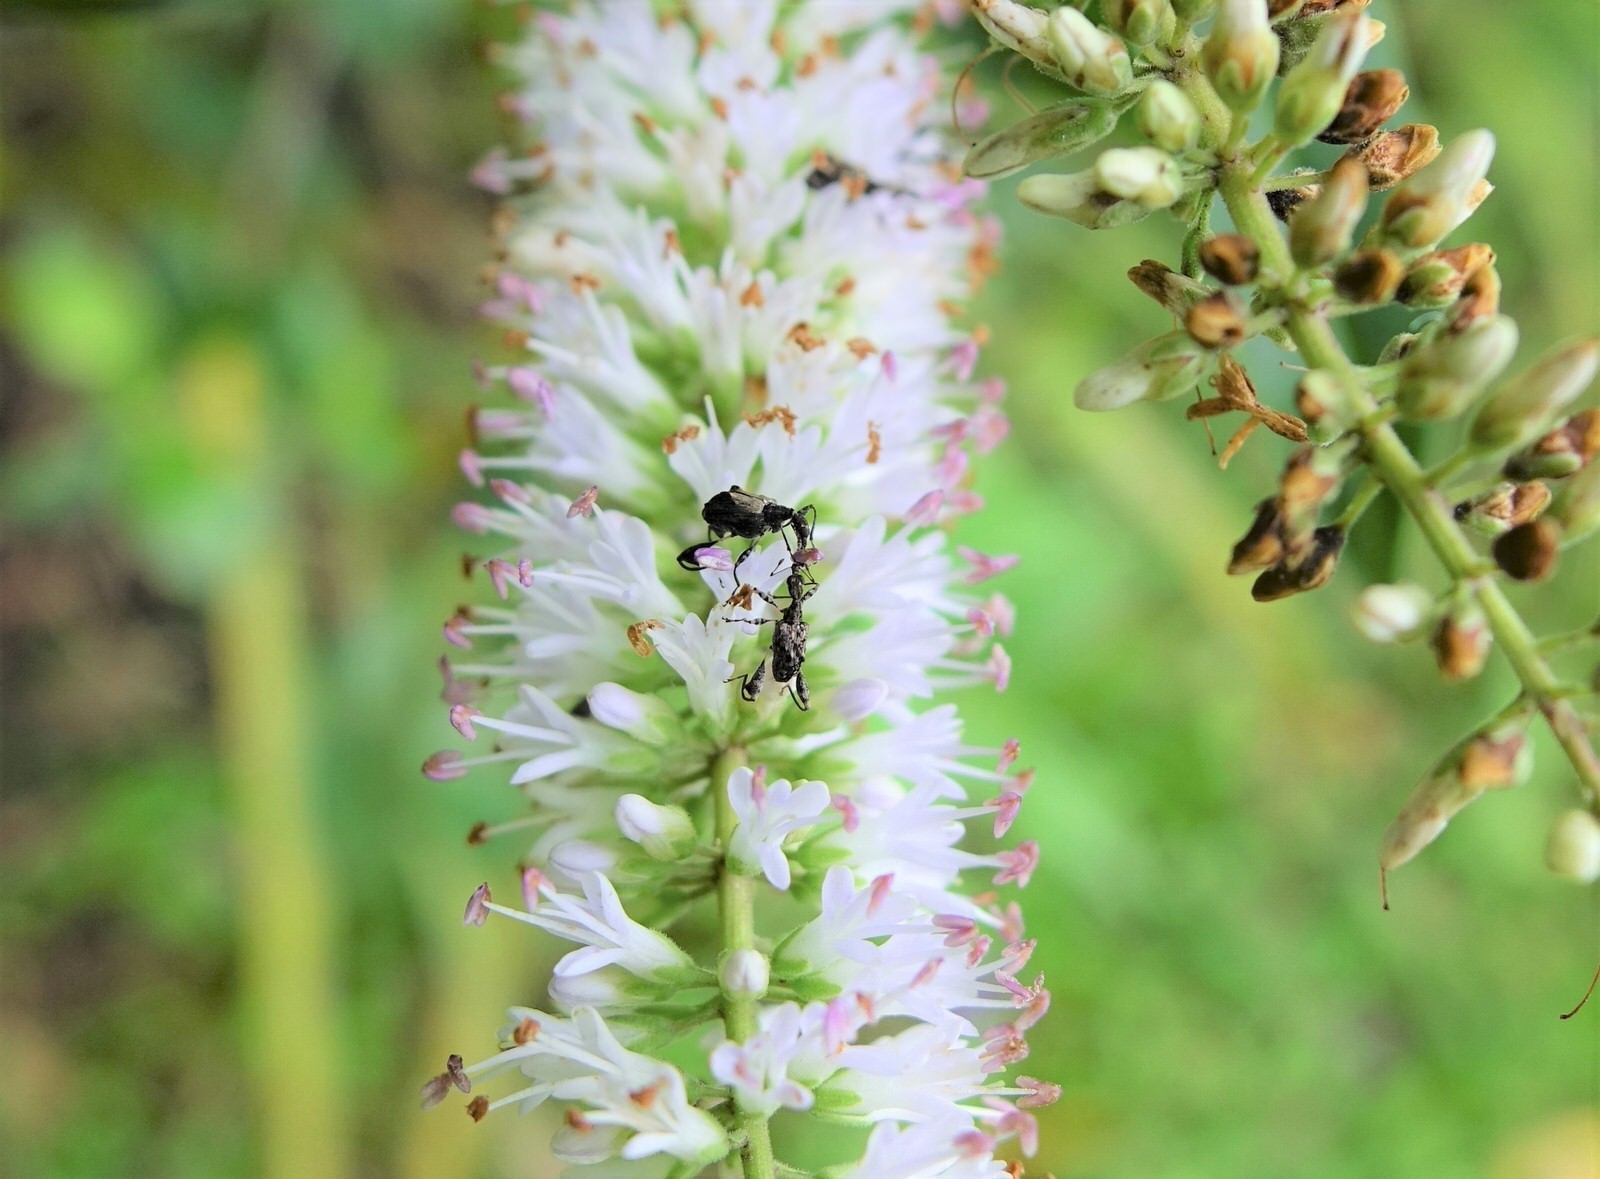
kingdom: Animalia
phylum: Arthropoda
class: Insecta
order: Coleoptera
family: Curculionidae
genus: Stephanorhynchus
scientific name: Stephanorhynchus lawsoni
